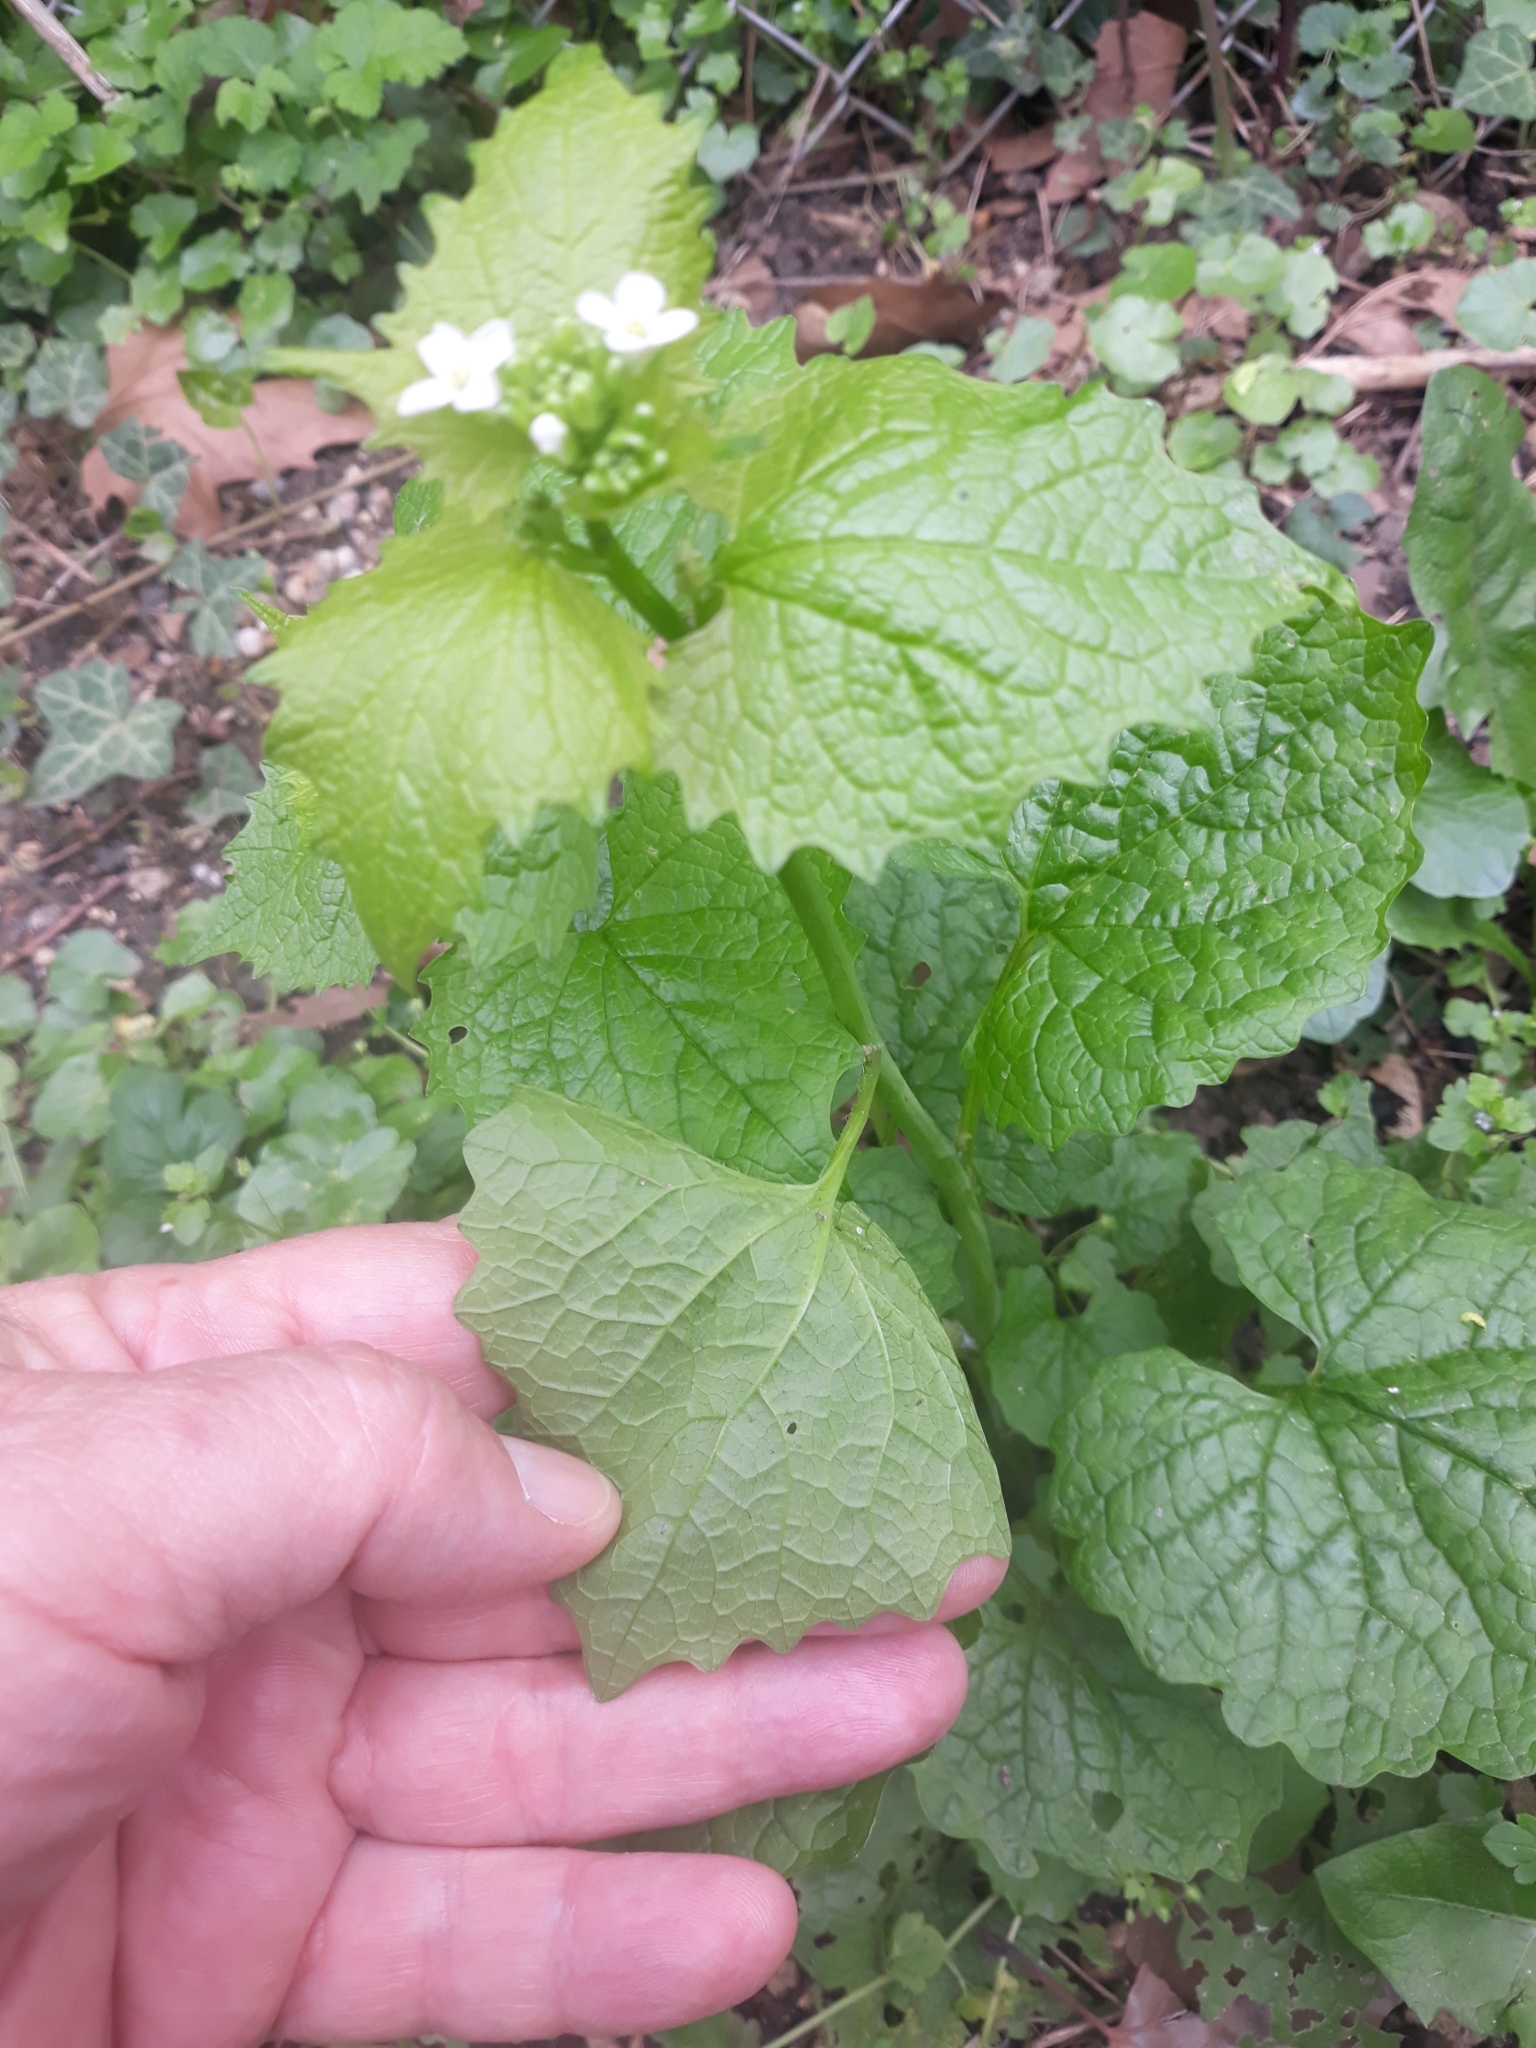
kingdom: Plantae
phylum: Tracheophyta
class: Magnoliopsida
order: Brassicales
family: Brassicaceae
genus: Alliaria
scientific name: Alliaria petiolata
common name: Garlic mustard
